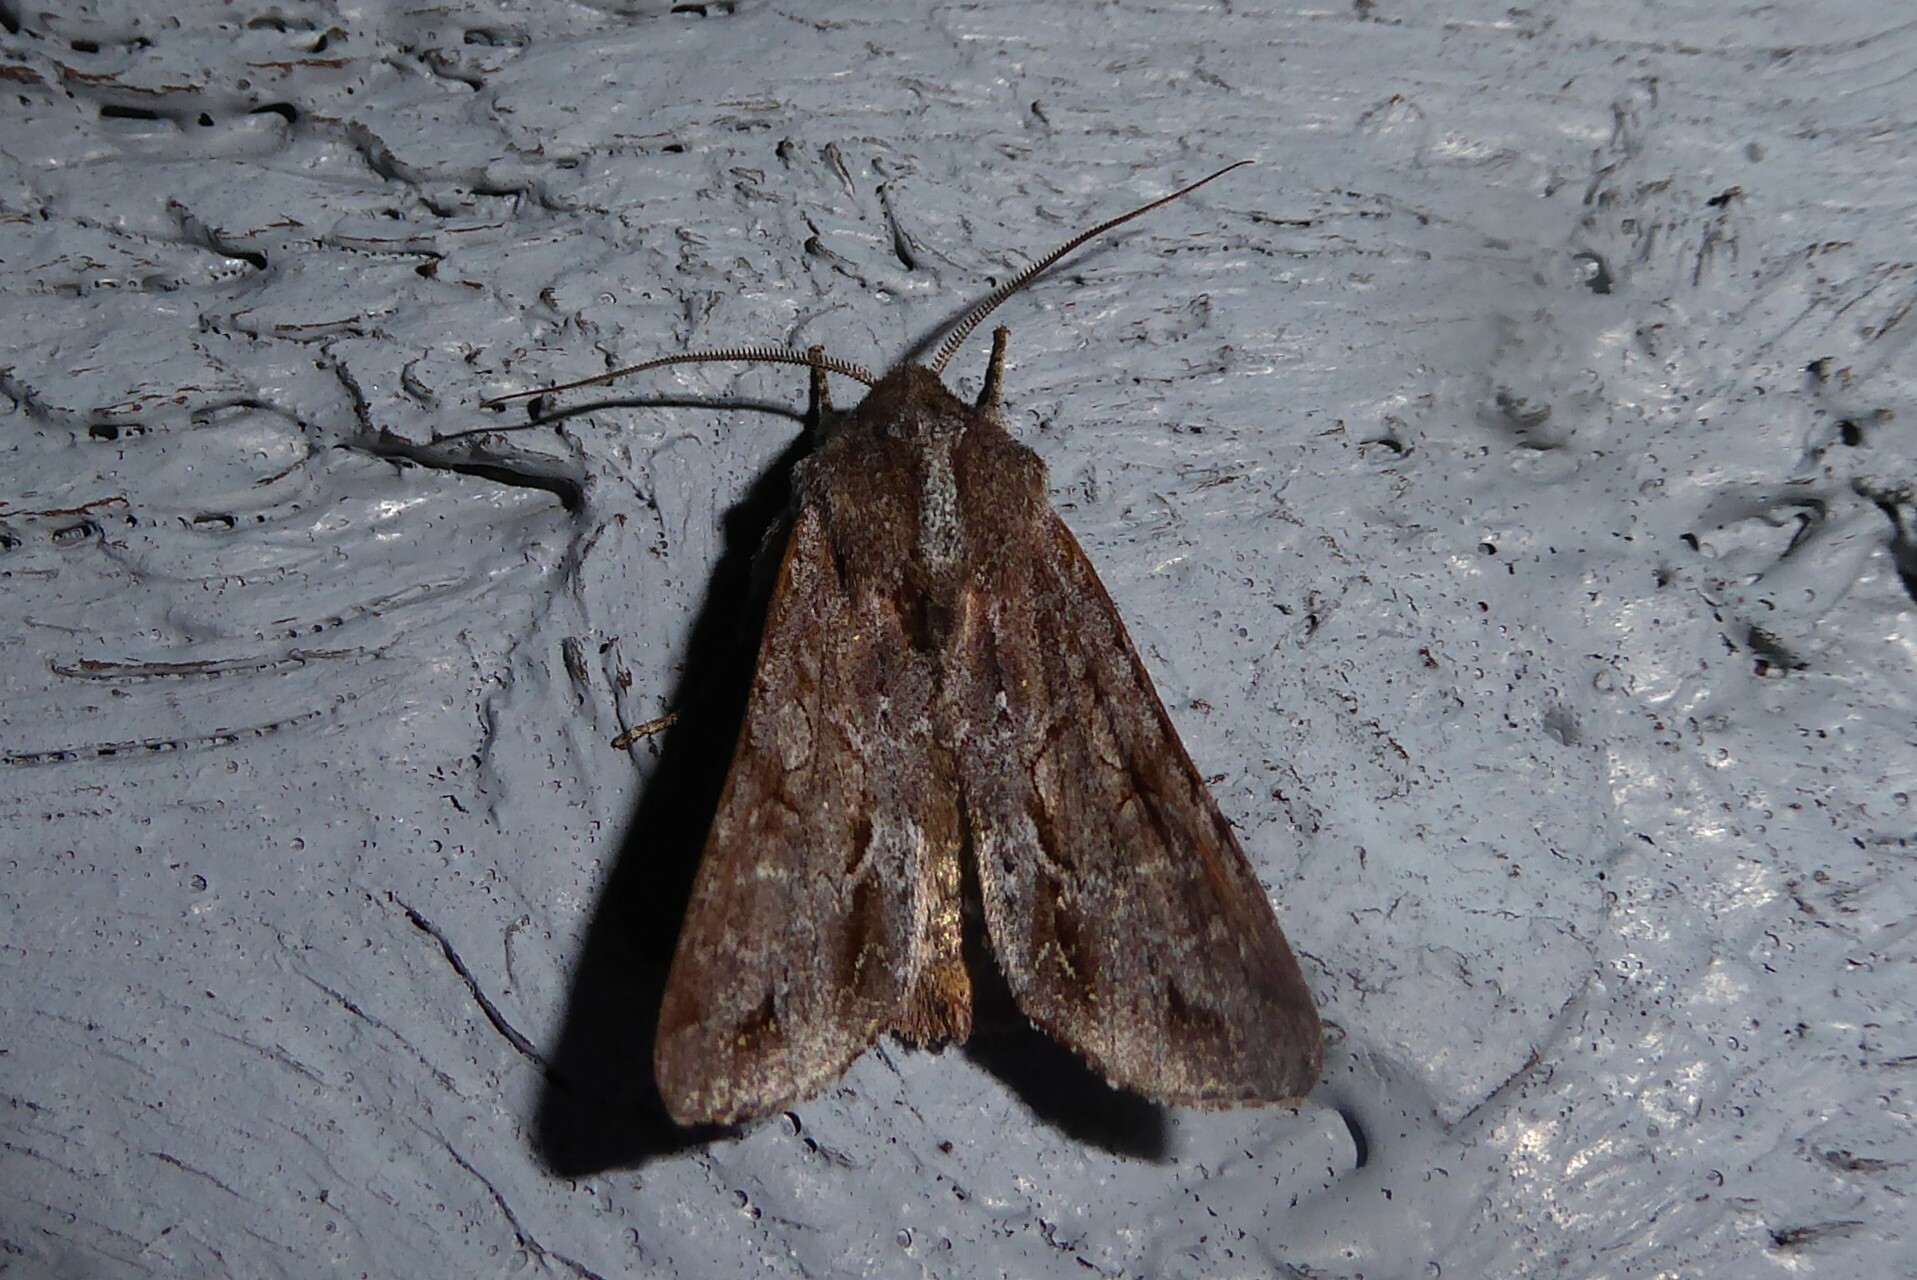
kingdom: Animalia
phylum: Arthropoda
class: Insecta
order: Lepidoptera
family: Noctuidae
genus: Ichneutica
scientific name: Ichneutica
